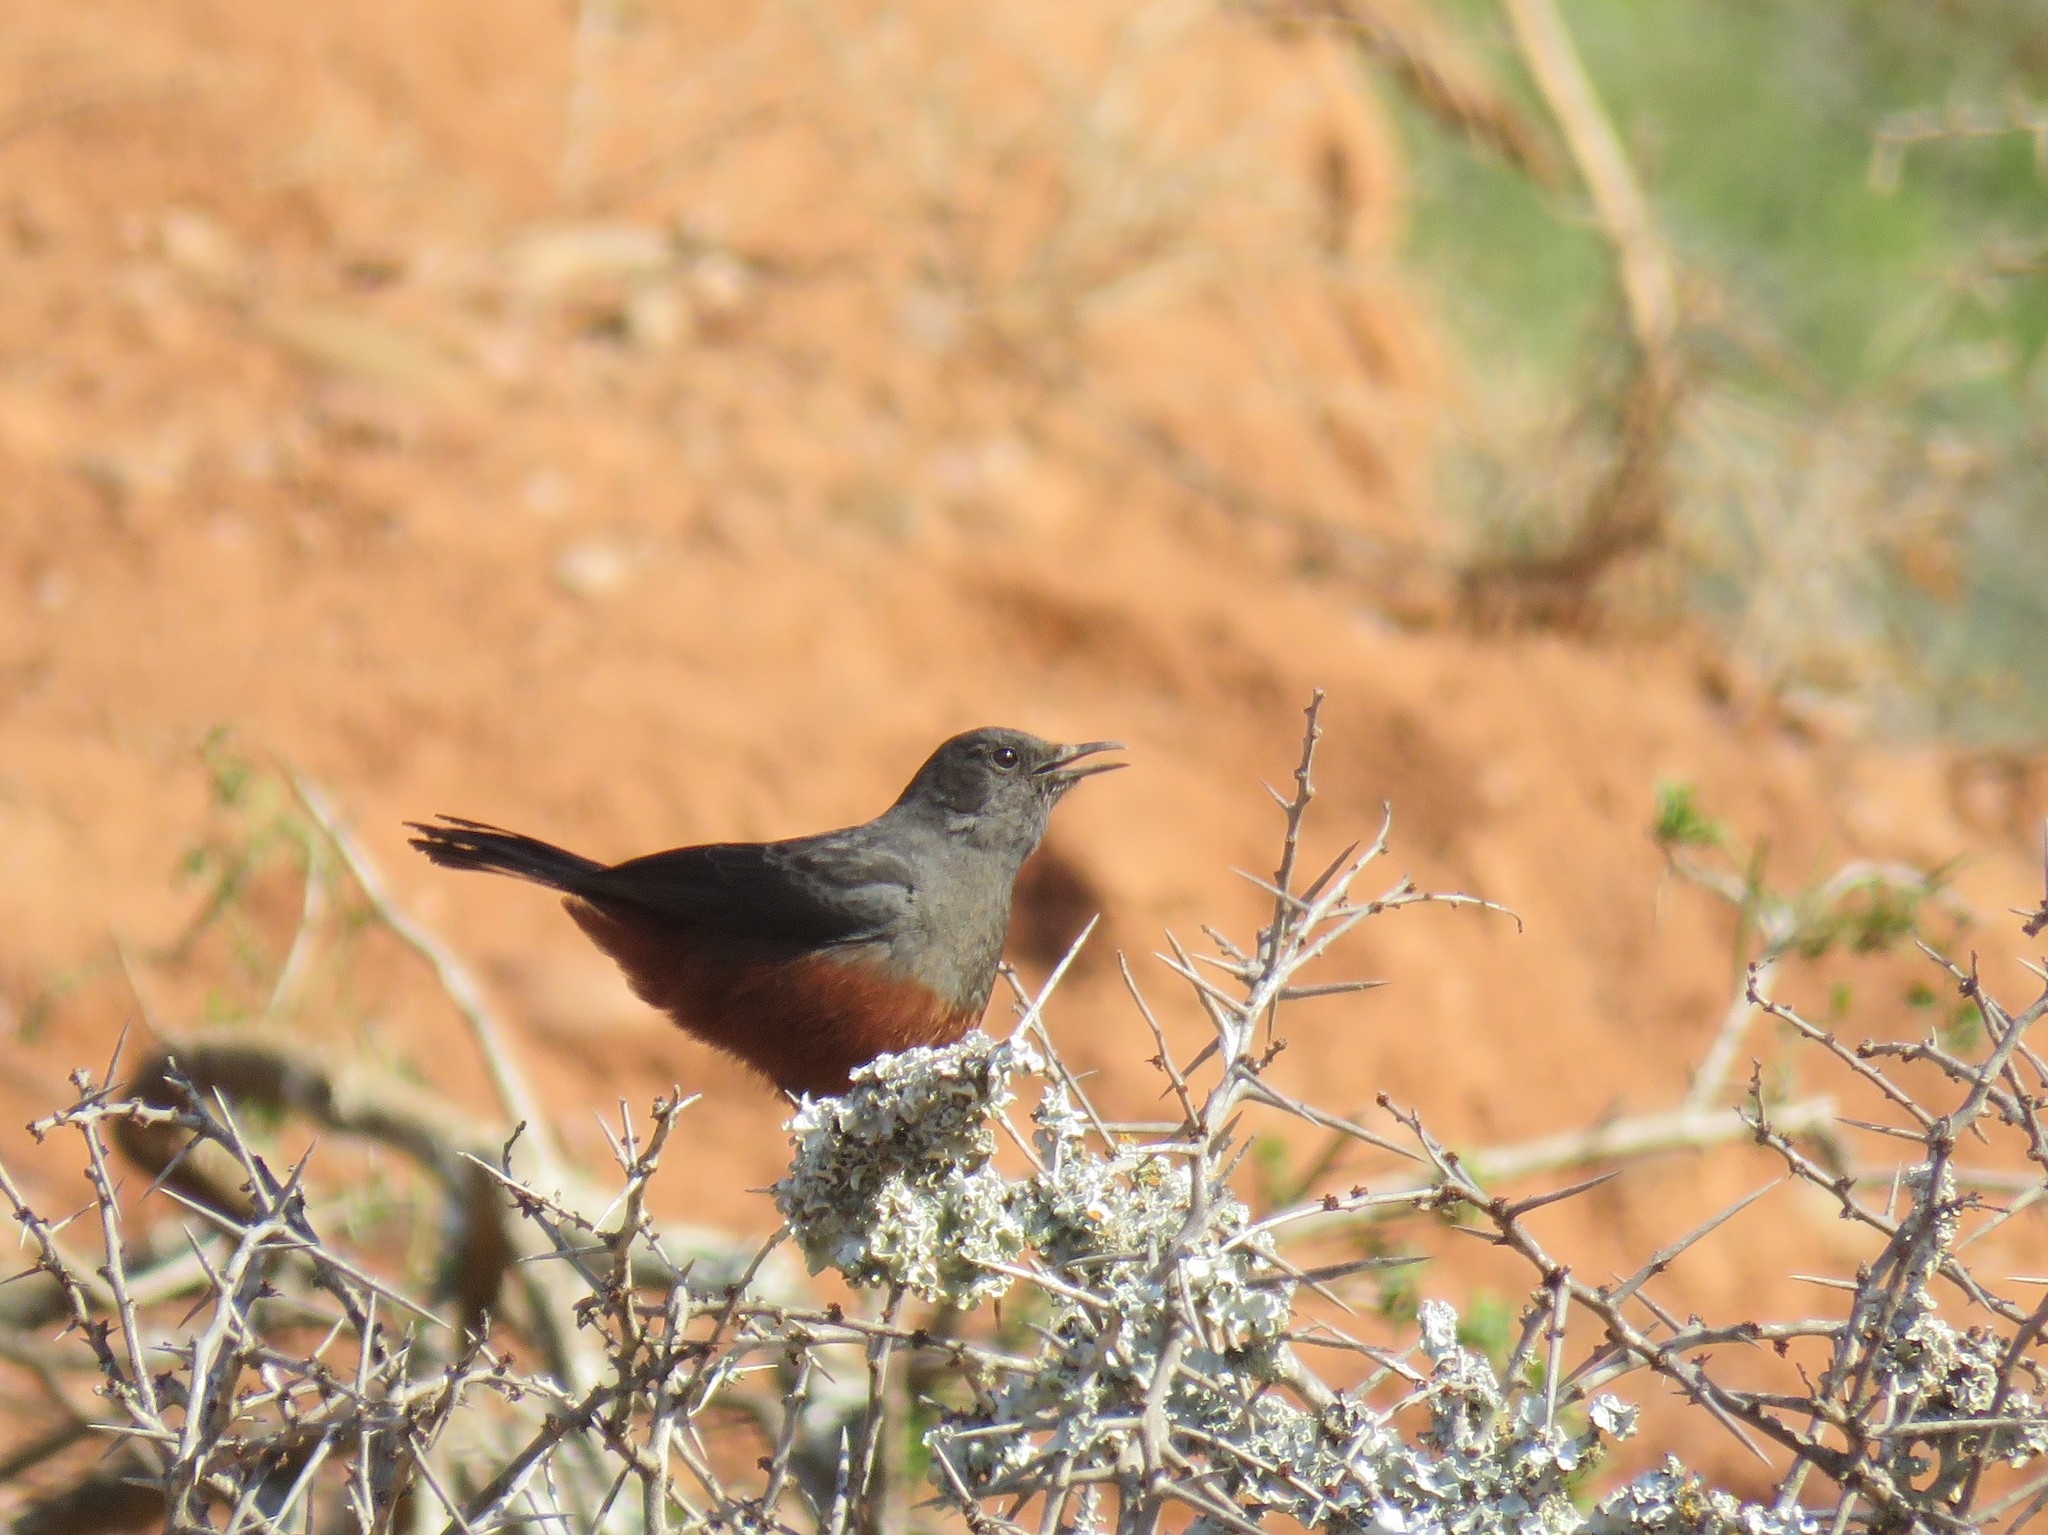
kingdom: Animalia
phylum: Chordata
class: Aves
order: Passeriformes
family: Muscicapidae
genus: Thamnolaea
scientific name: Thamnolaea cinnamomeiventris
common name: Mocking cliff chat
